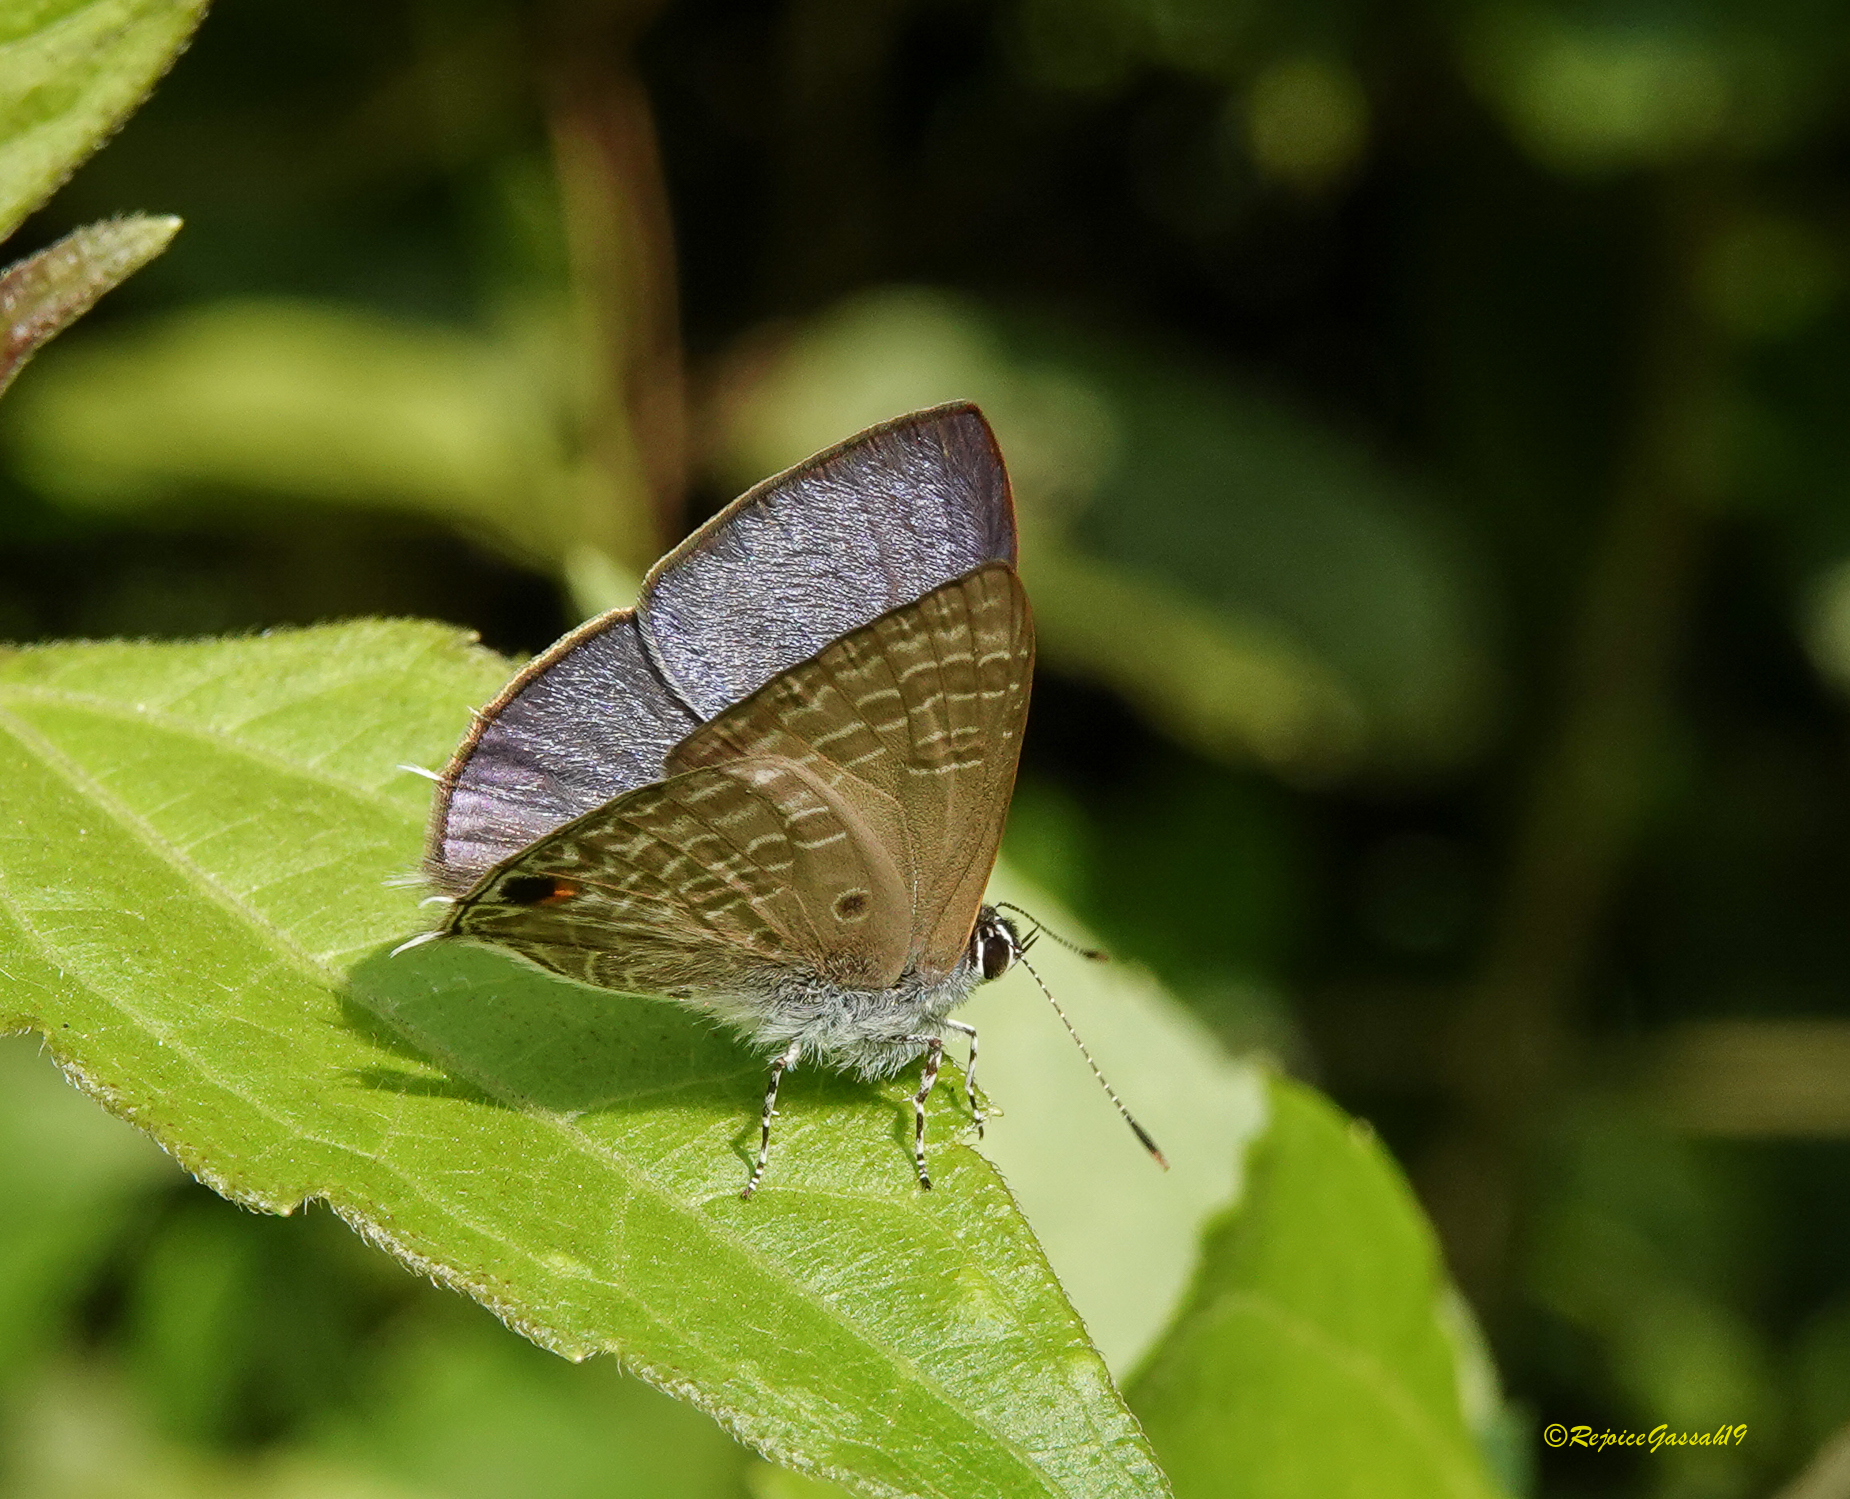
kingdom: Animalia
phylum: Arthropoda
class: Insecta
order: Lepidoptera
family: Lycaenidae
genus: Anthene
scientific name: Anthene lycaenina
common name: Pointed ciliate blue
